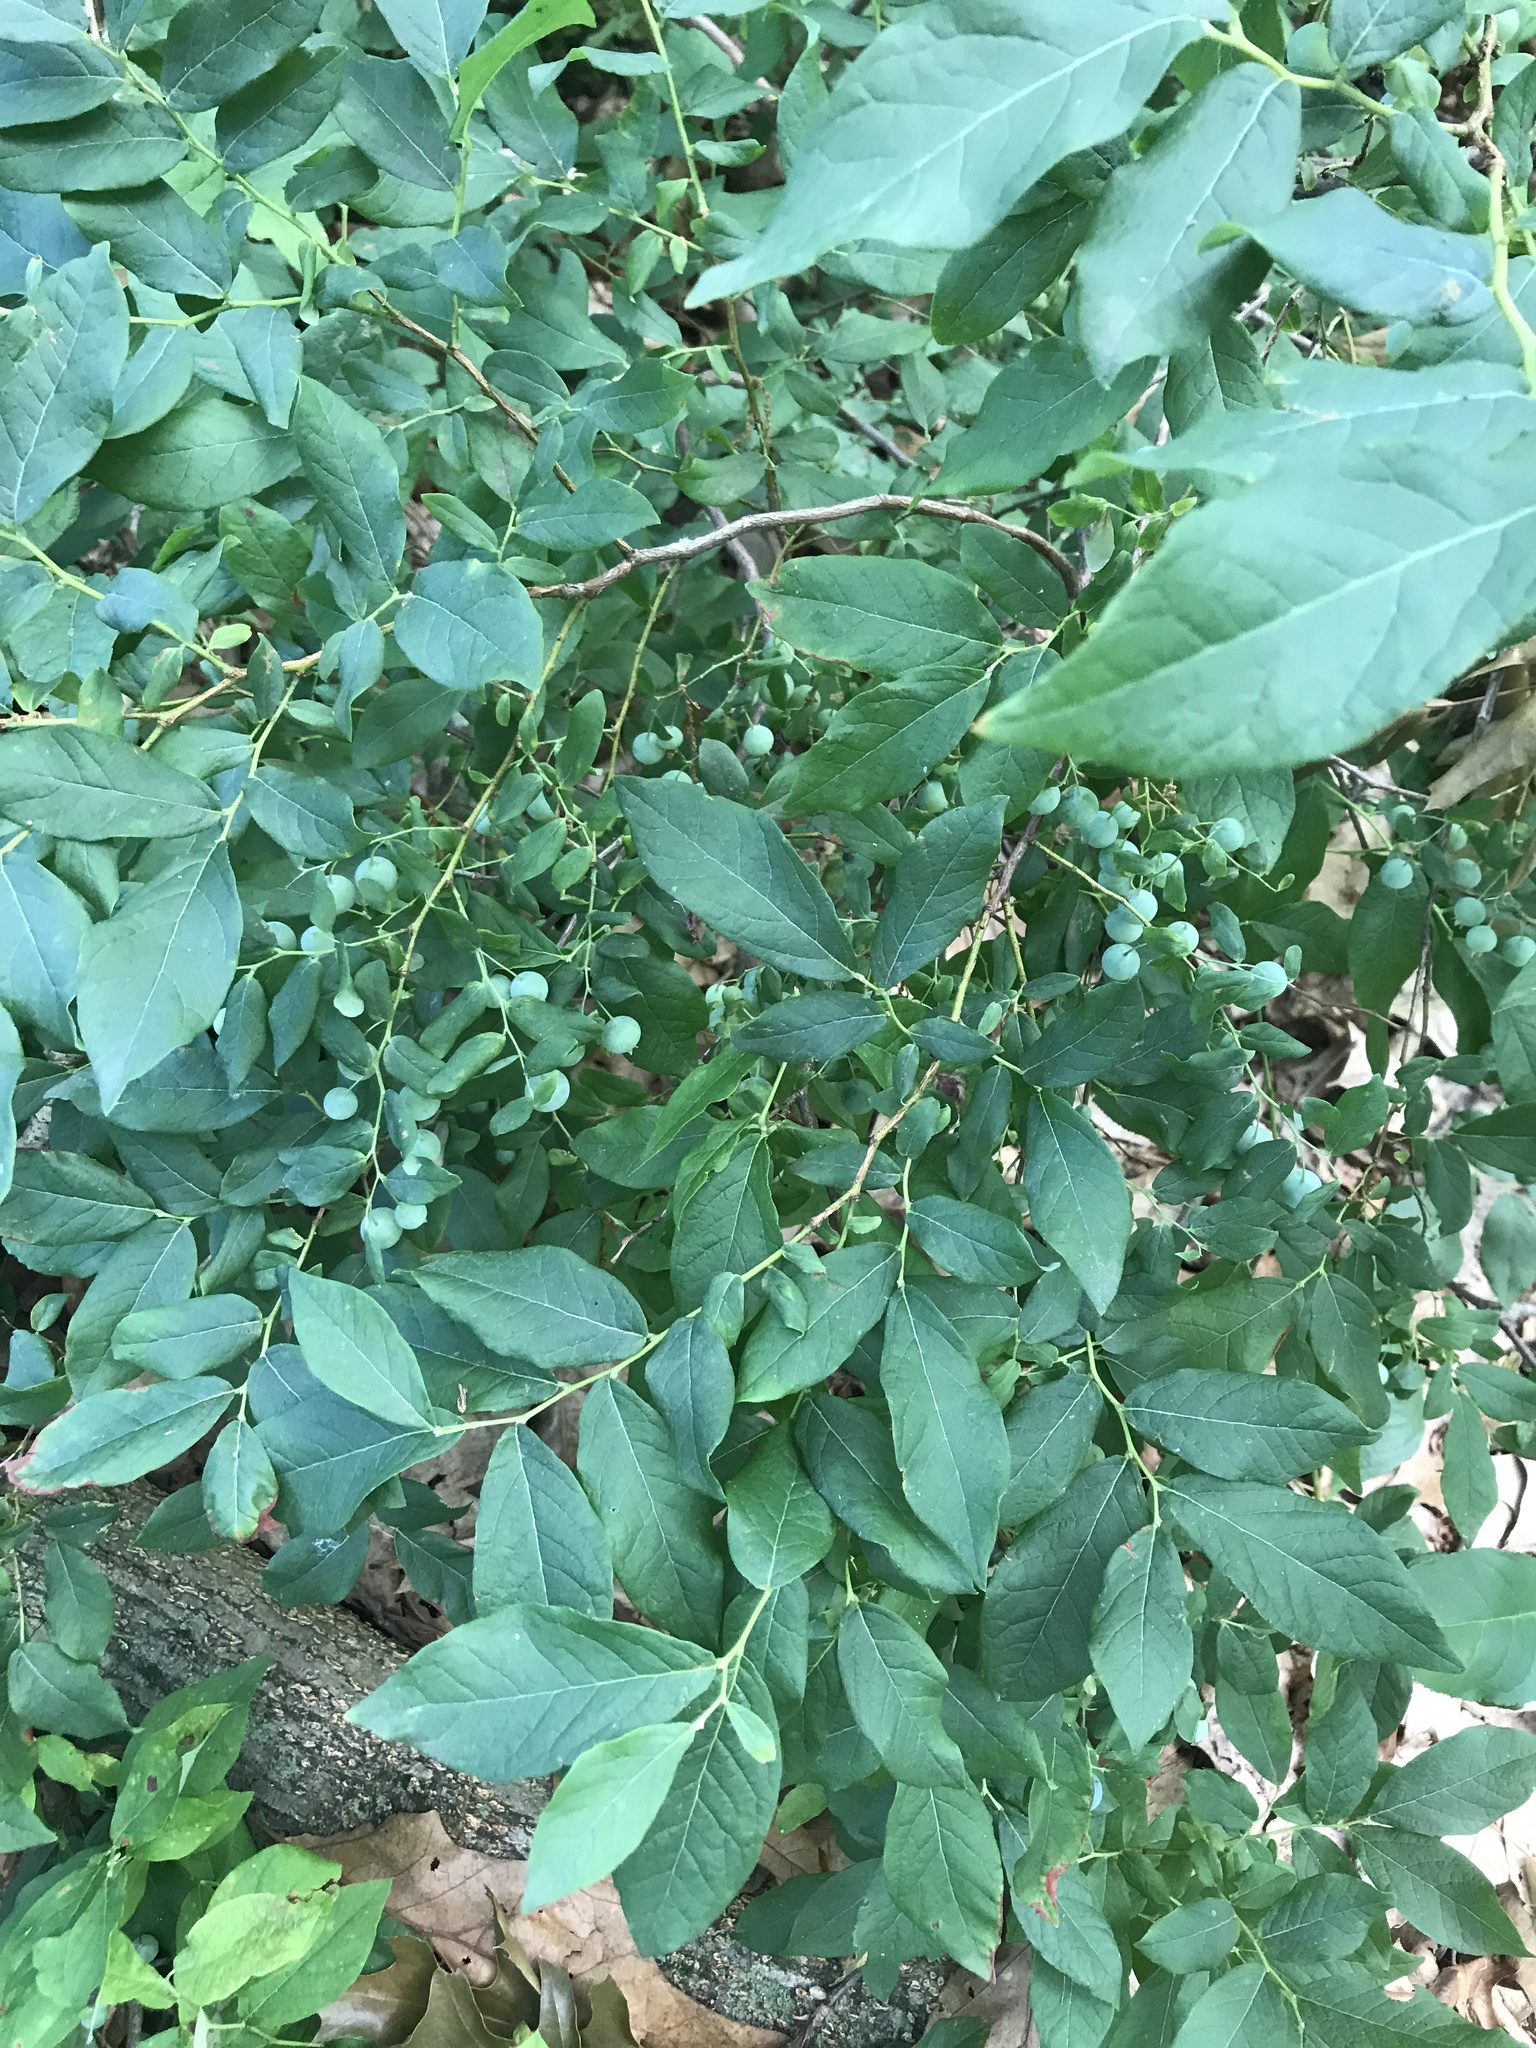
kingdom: Plantae
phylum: Tracheophyta
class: Magnoliopsida
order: Ericales
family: Ericaceae
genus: Vaccinium
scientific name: Vaccinium stamineum
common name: Deerberry
